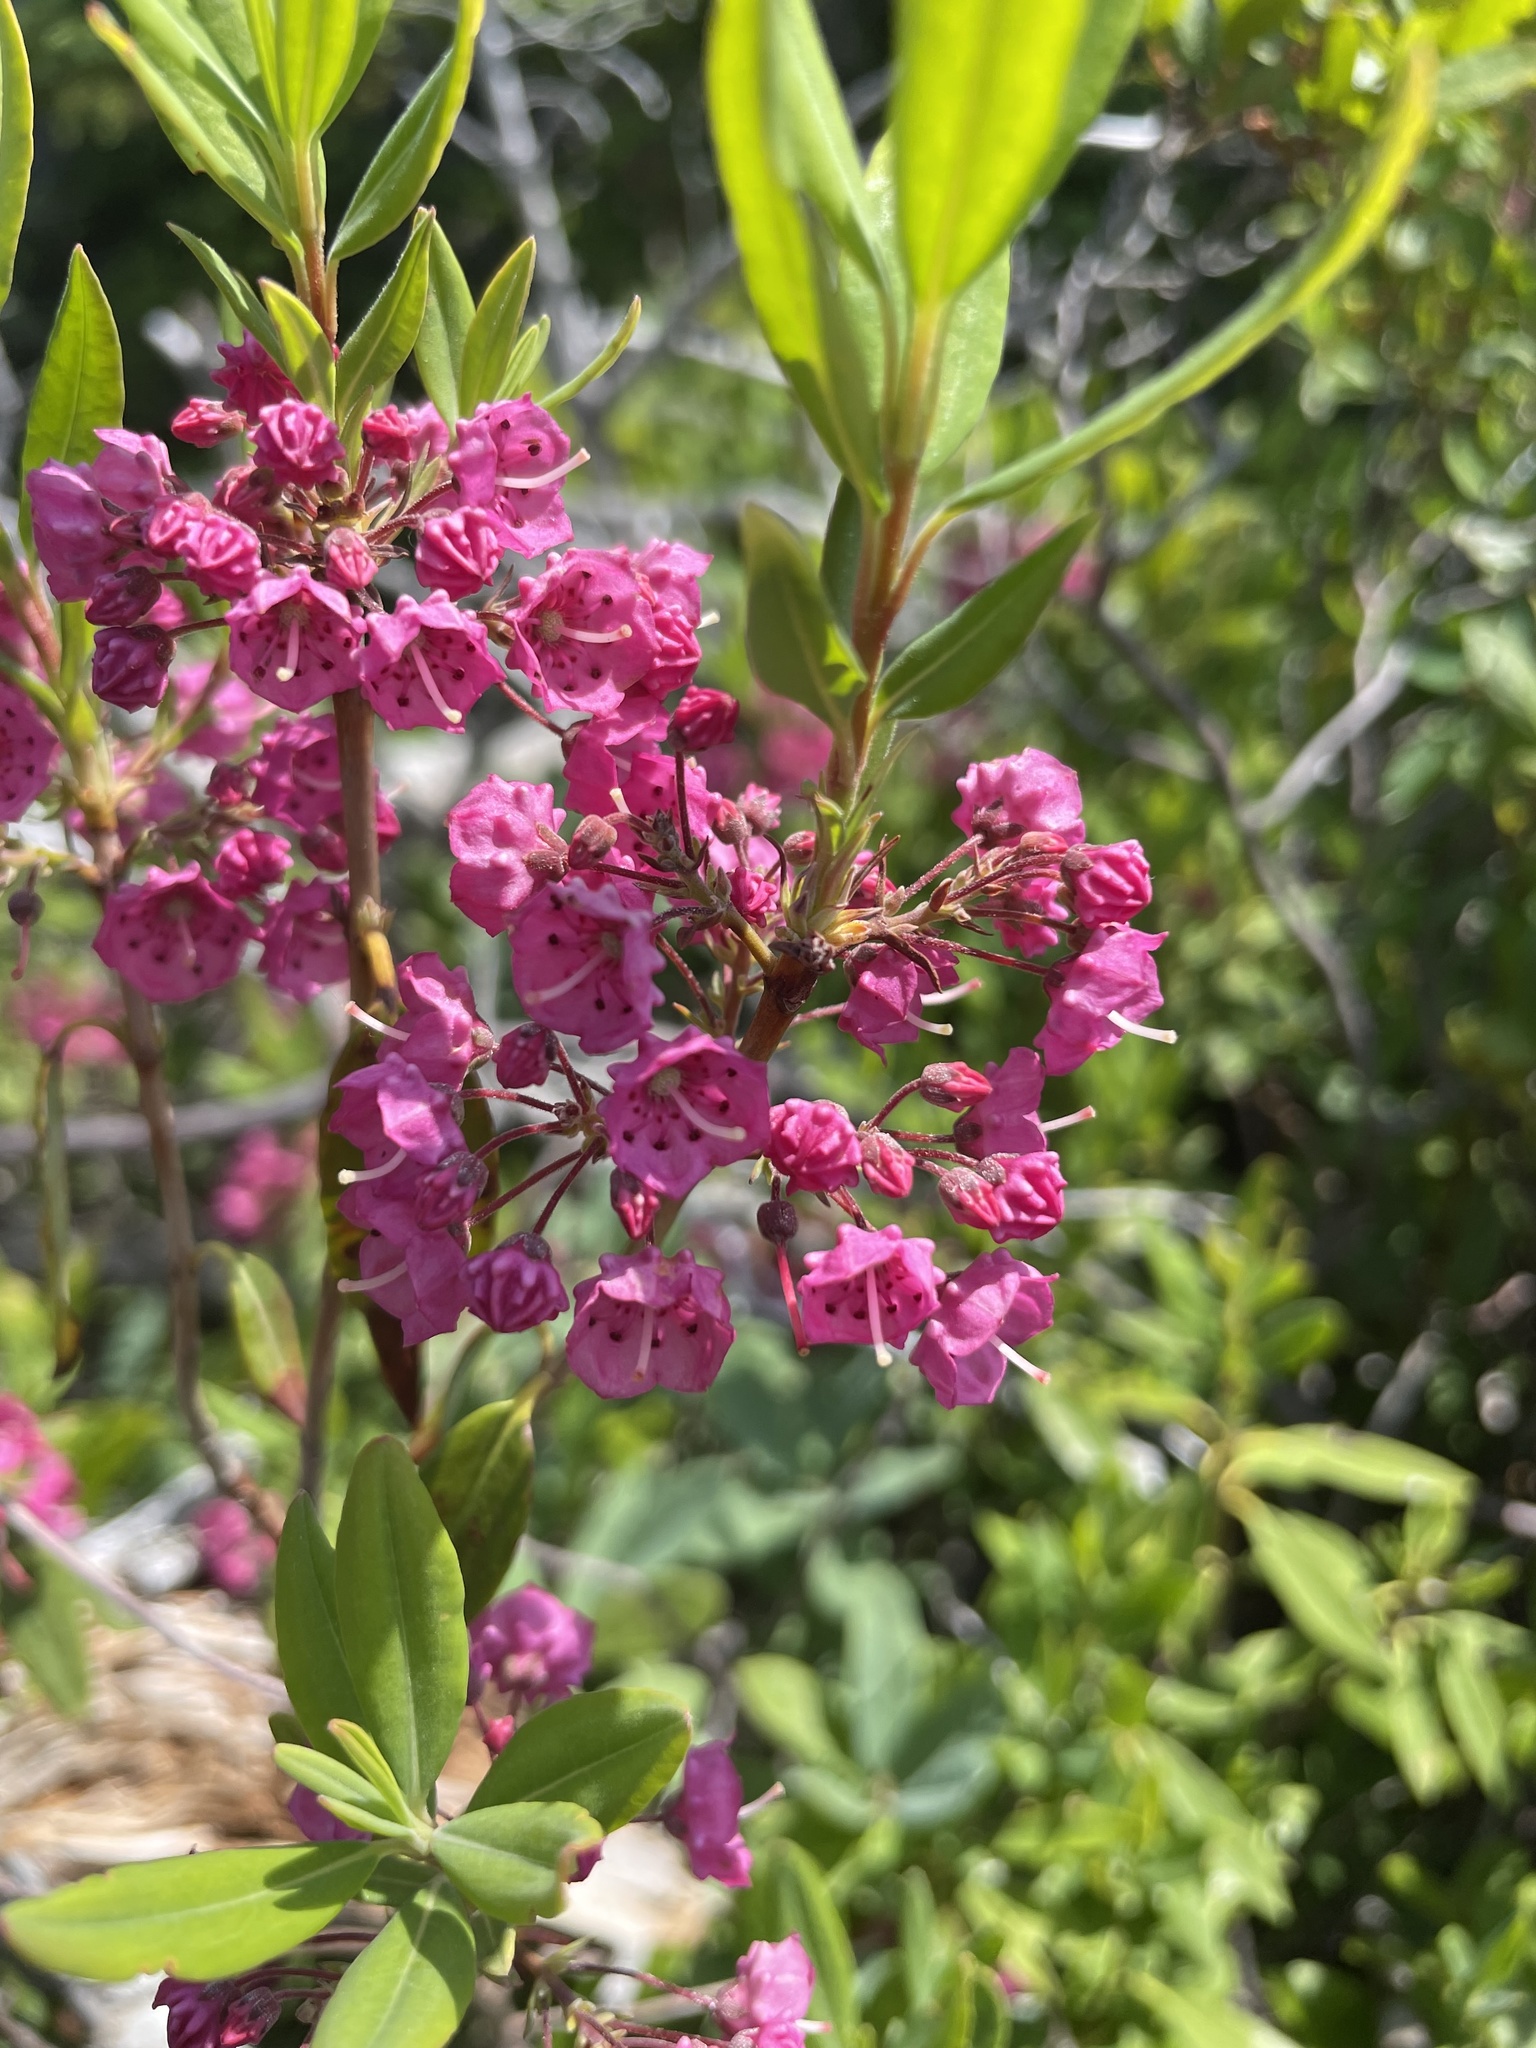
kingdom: Plantae
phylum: Tracheophyta
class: Magnoliopsida
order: Ericales
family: Ericaceae
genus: Kalmia
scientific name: Kalmia angustifolia
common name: Sheep-laurel
